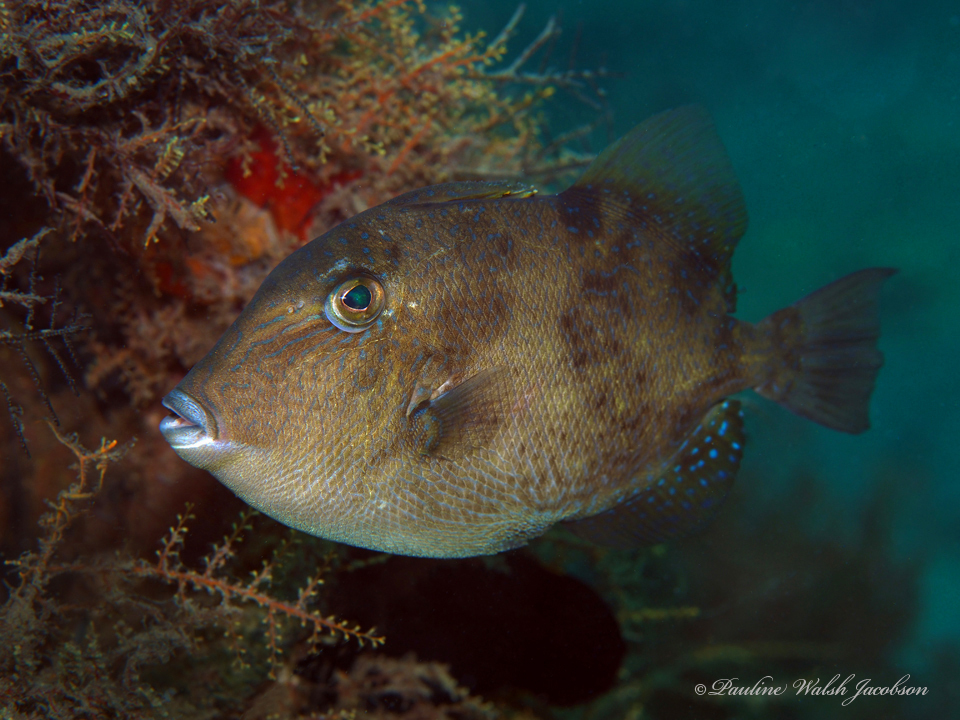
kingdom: Animalia
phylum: Chordata
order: Tetraodontiformes
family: Balistidae
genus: Balistes
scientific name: Balistes capriscus
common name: Grey triggerfish
